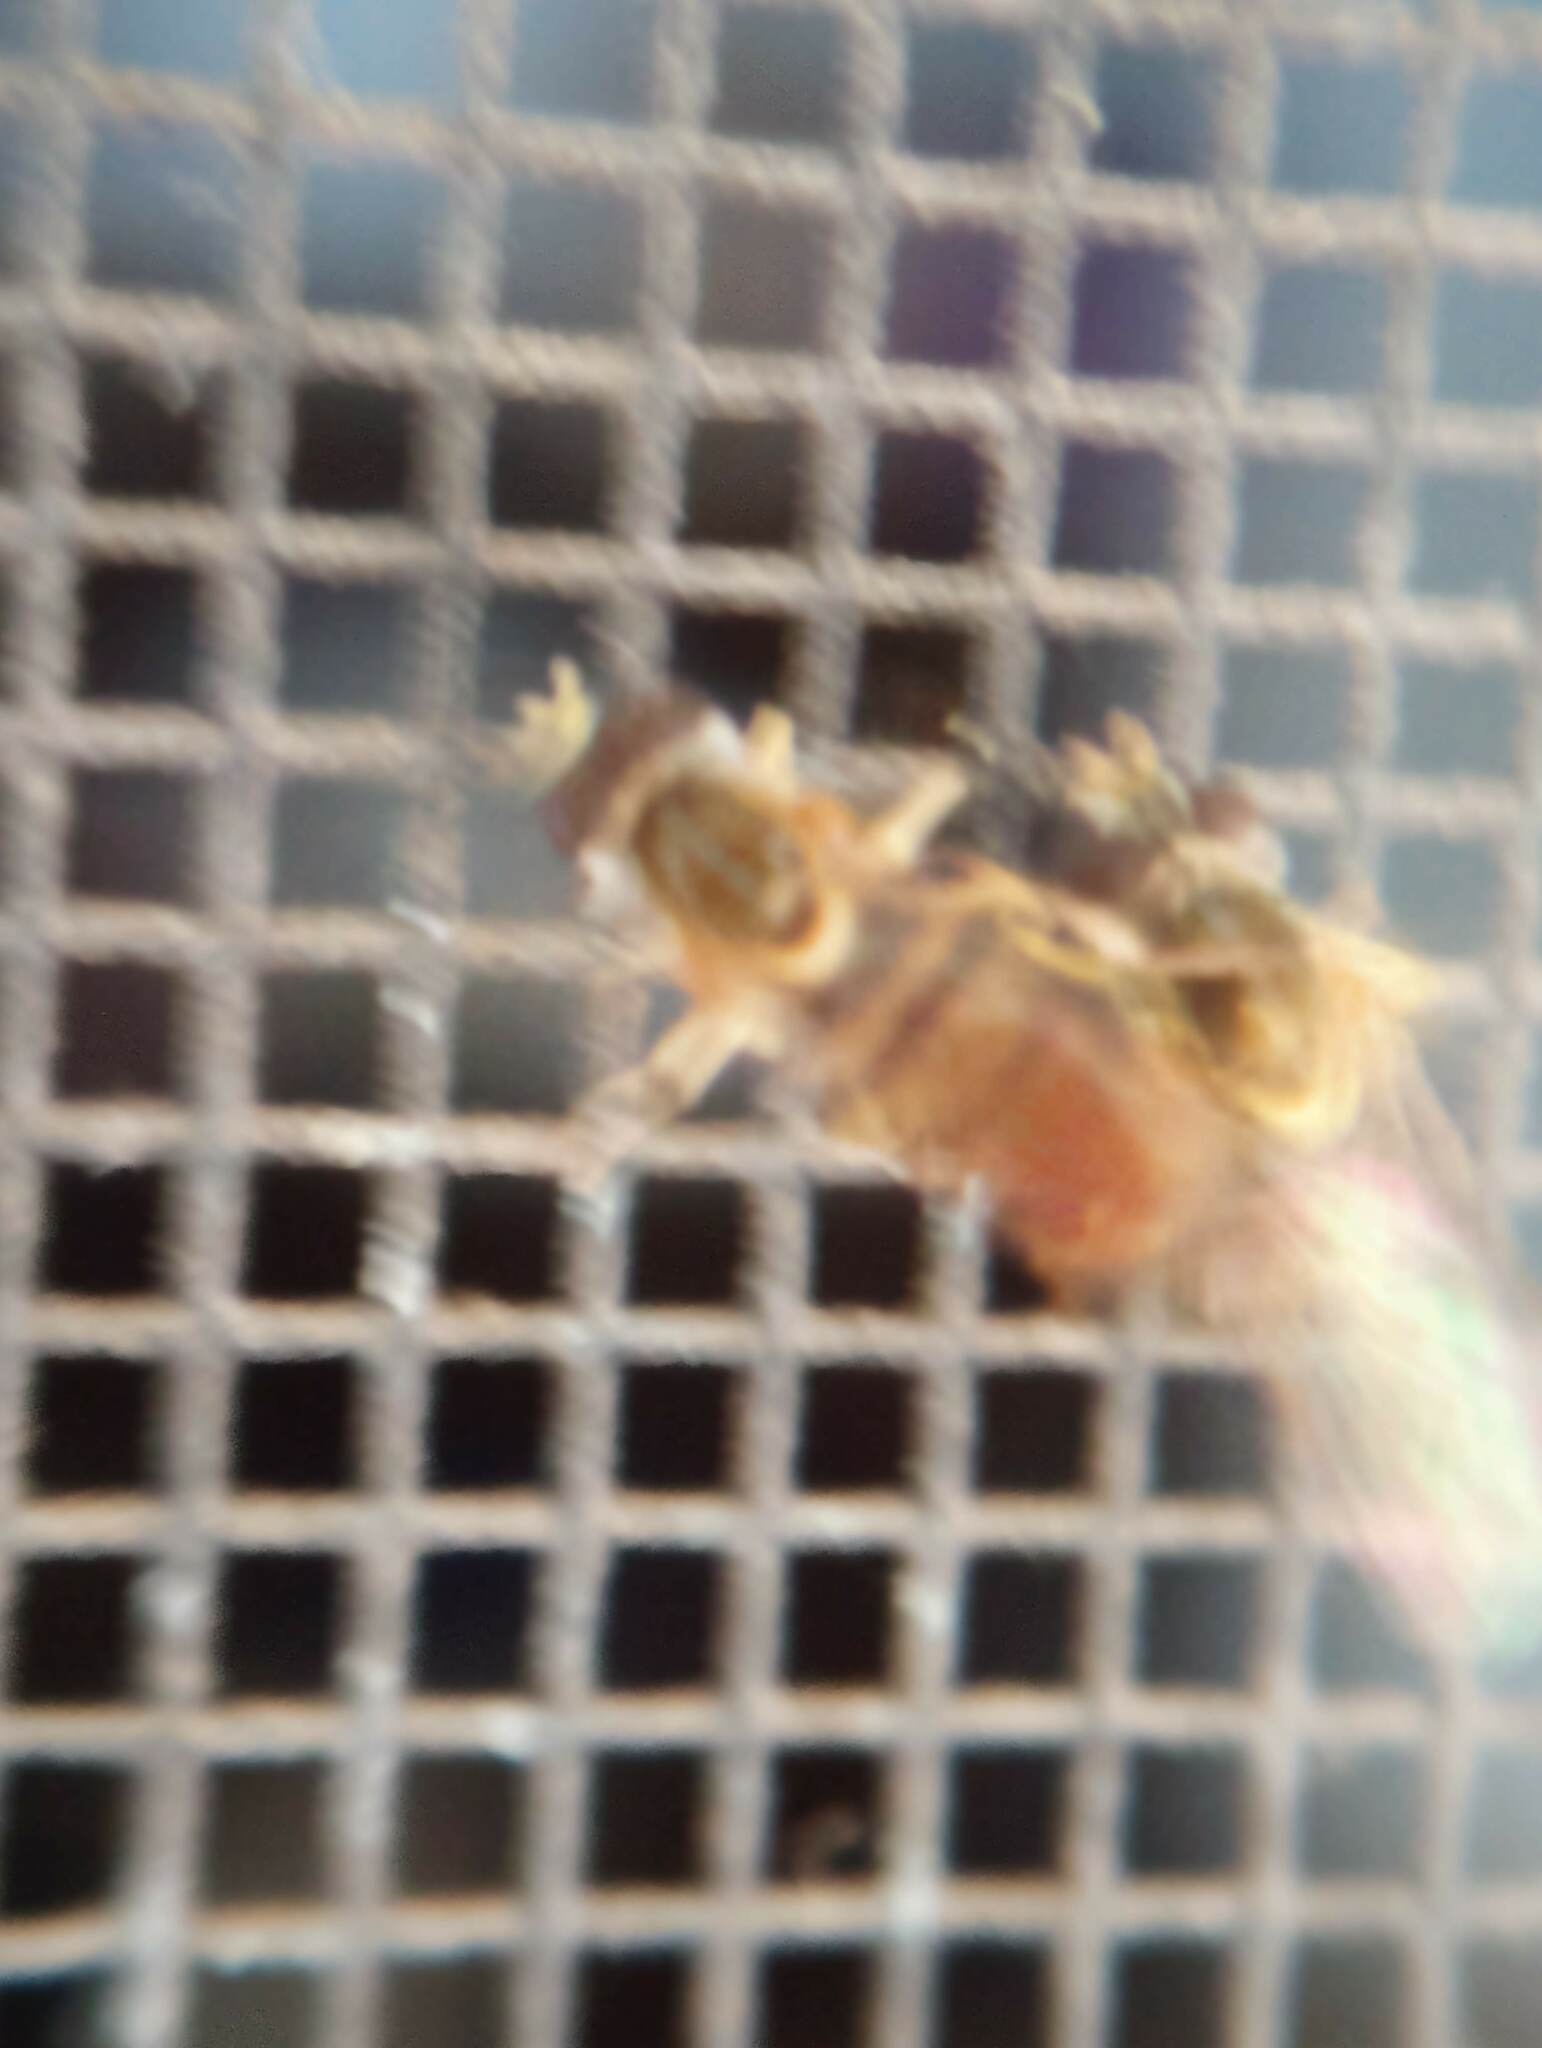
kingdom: Animalia
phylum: Arthropoda
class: Insecta
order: Diptera
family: Syrphidae
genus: Toxomerus
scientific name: Toxomerus marginatus
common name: Syrphid fly
